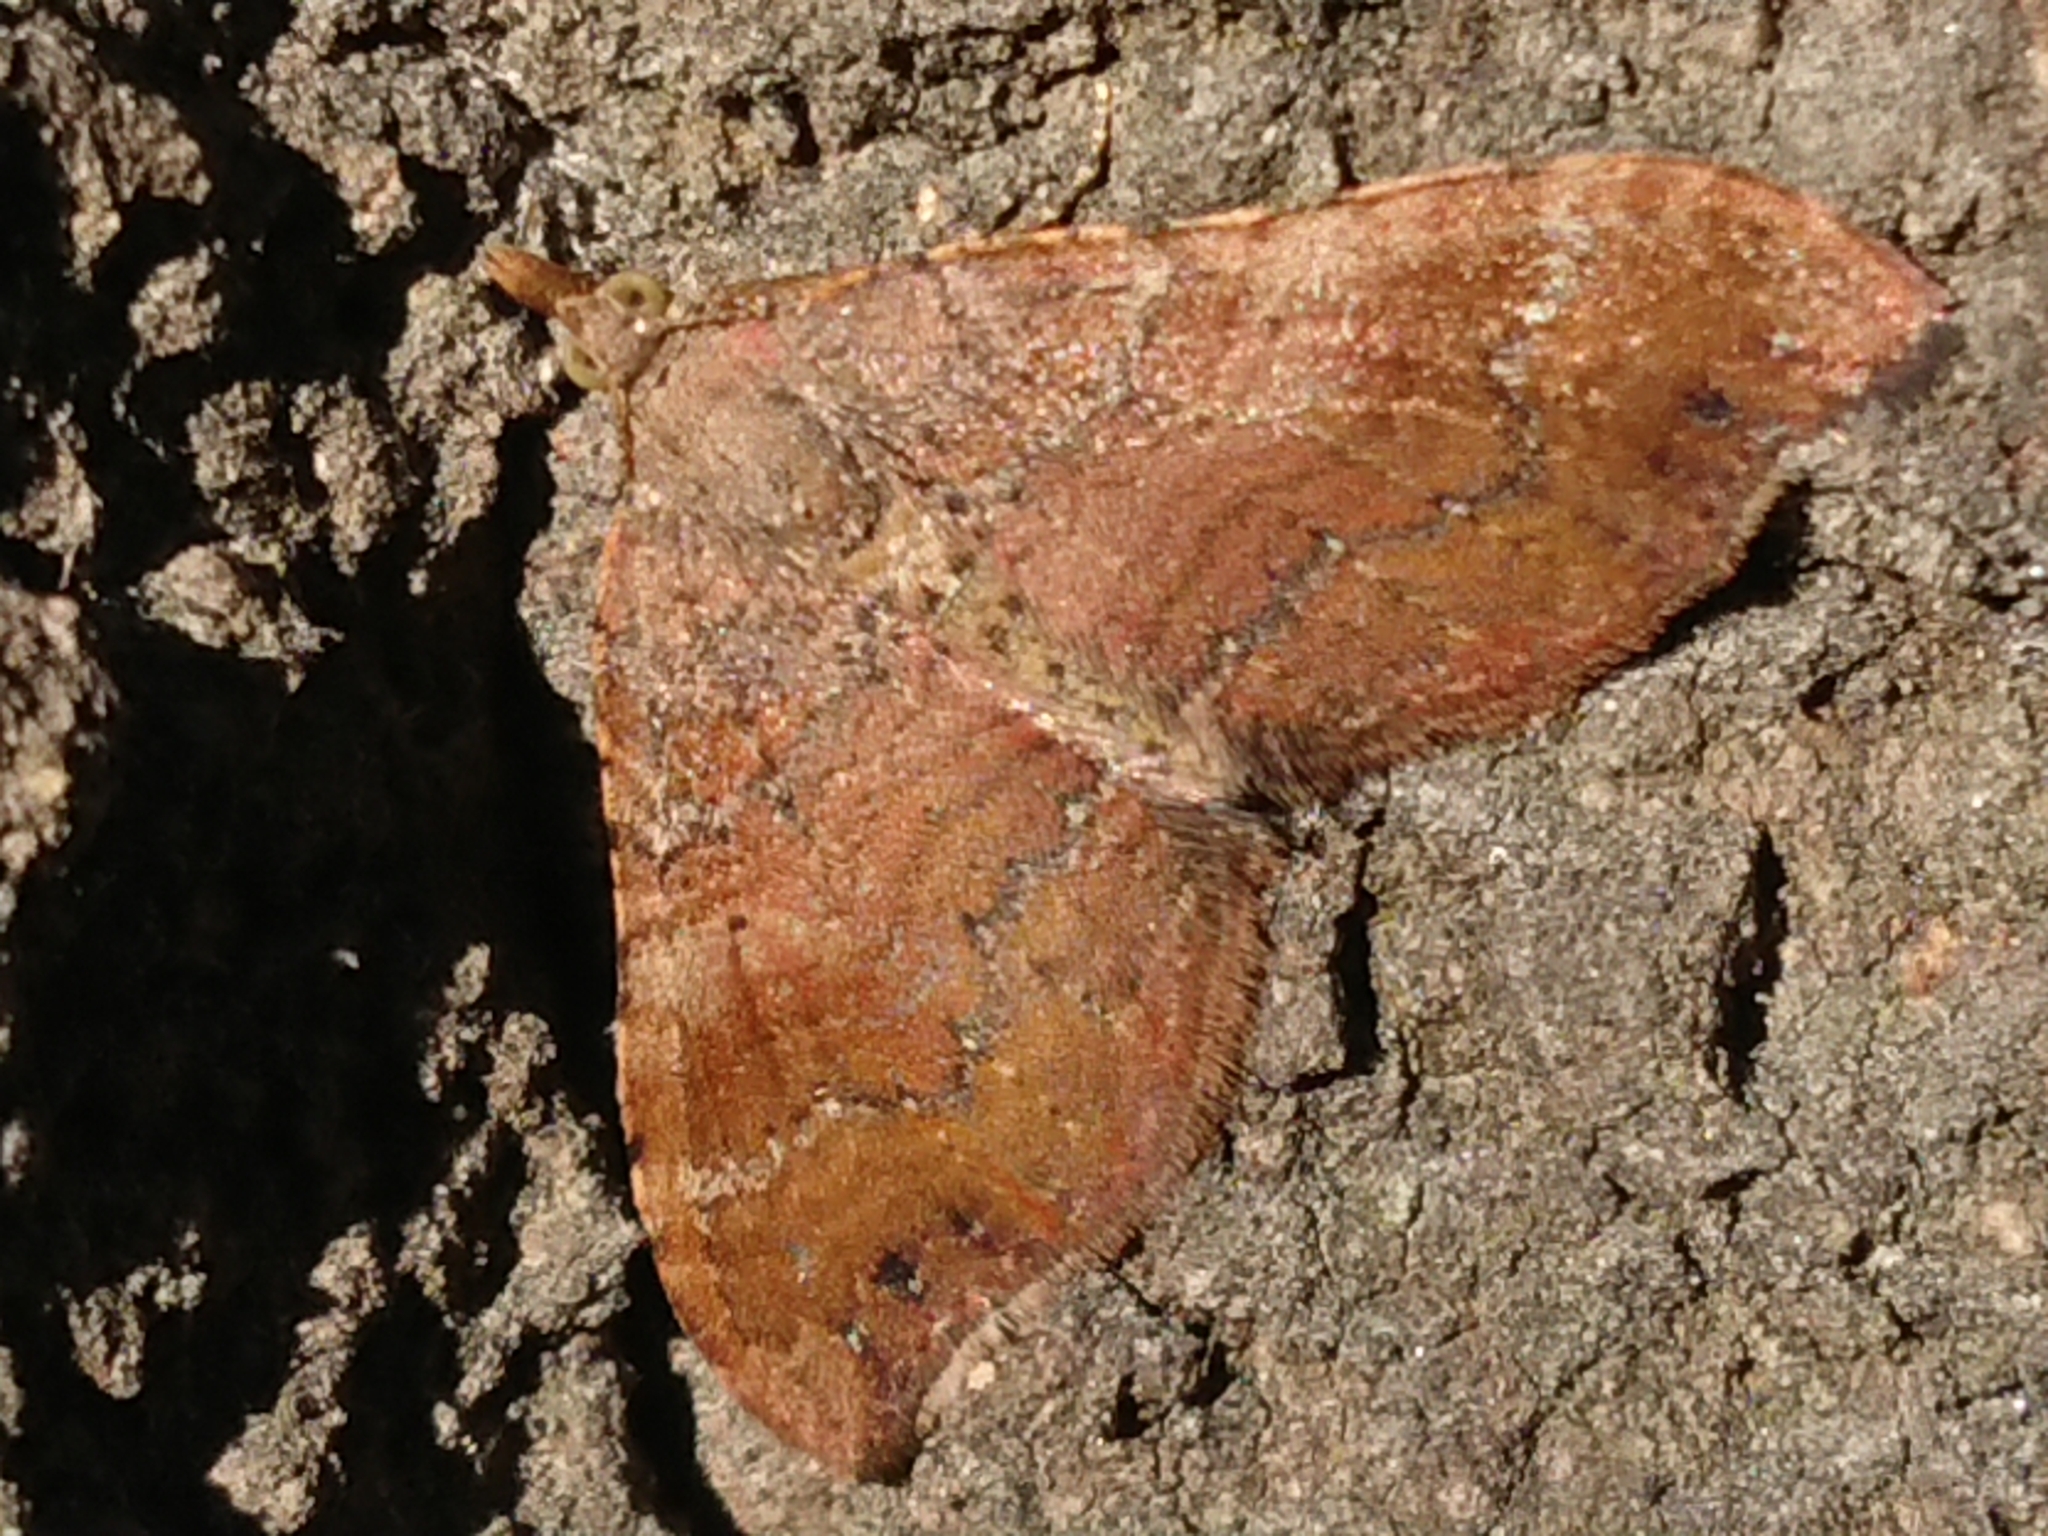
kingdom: Animalia
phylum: Arthropoda
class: Insecta
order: Lepidoptera
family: Geometridae
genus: Homodotis
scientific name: Homodotis megaspilata
